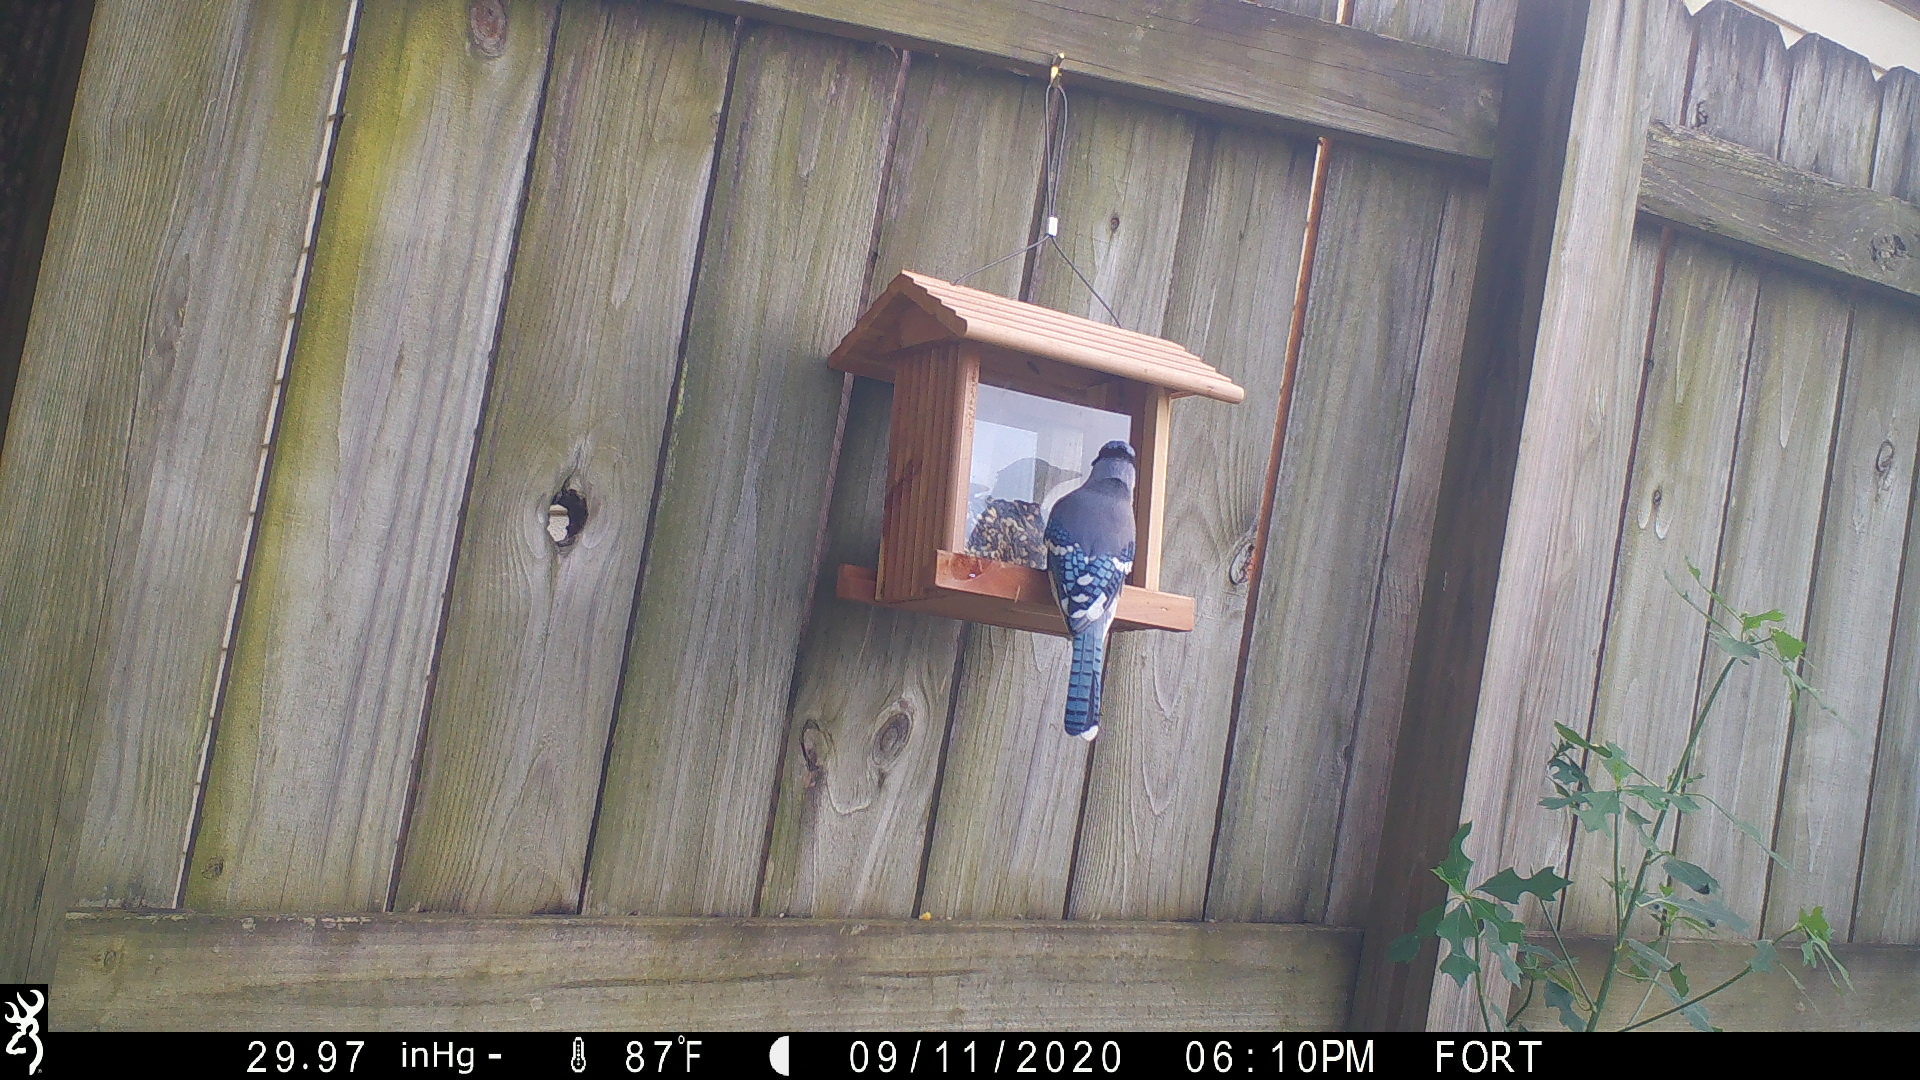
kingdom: Animalia
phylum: Chordata
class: Aves
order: Passeriformes
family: Corvidae
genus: Cyanocitta
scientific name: Cyanocitta cristata
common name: Blue jay
